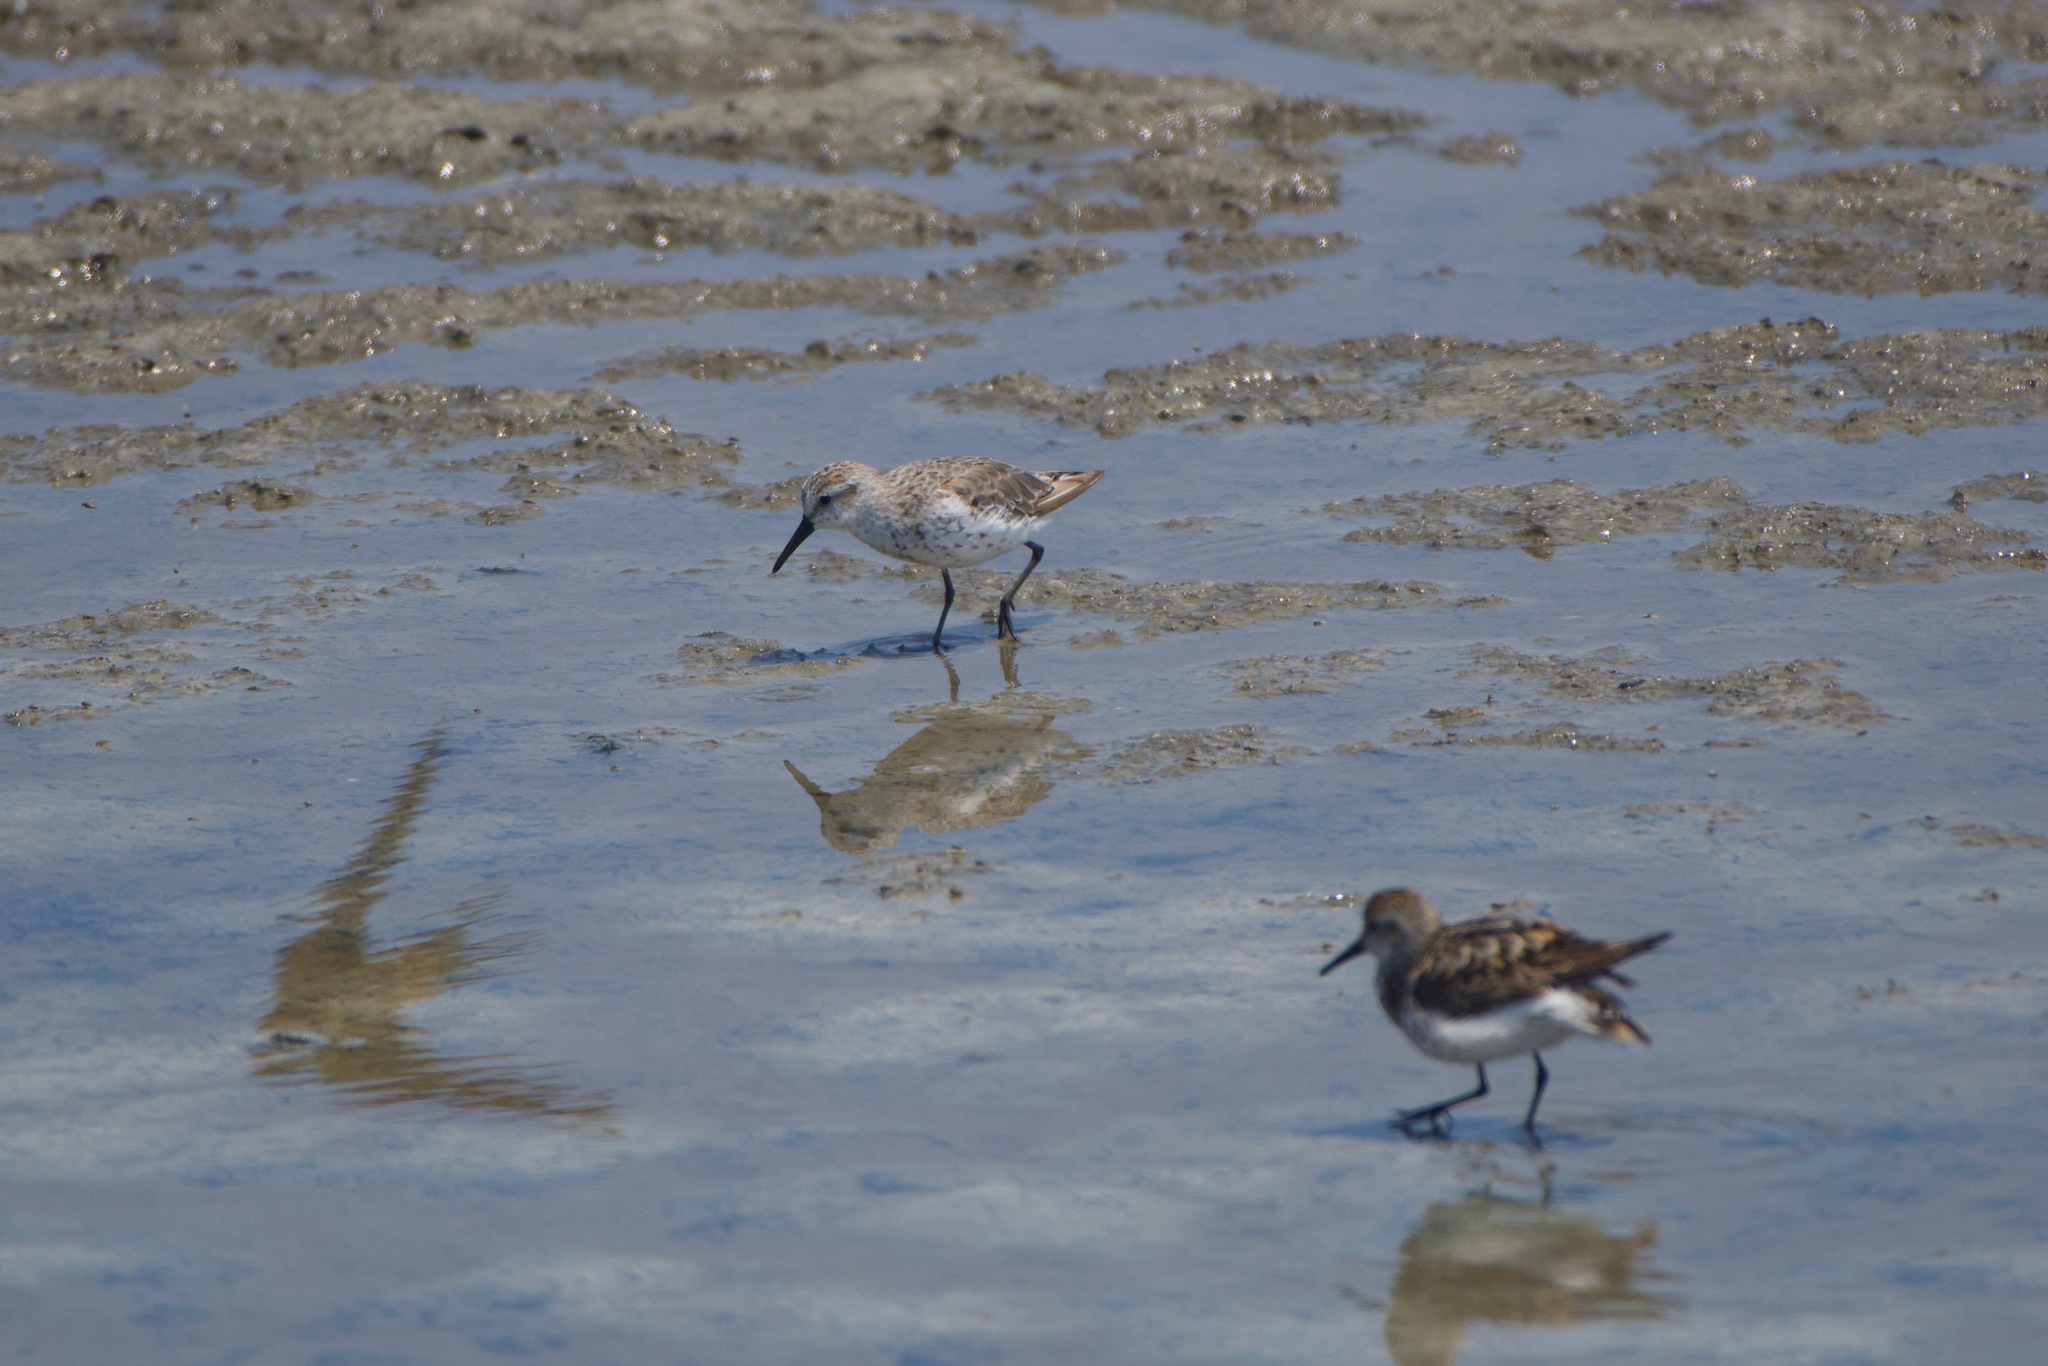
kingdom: Animalia
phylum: Chordata
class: Aves
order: Charadriiformes
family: Scolopacidae
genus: Calidris
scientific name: Calidris mauri
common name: Western sandpiper
